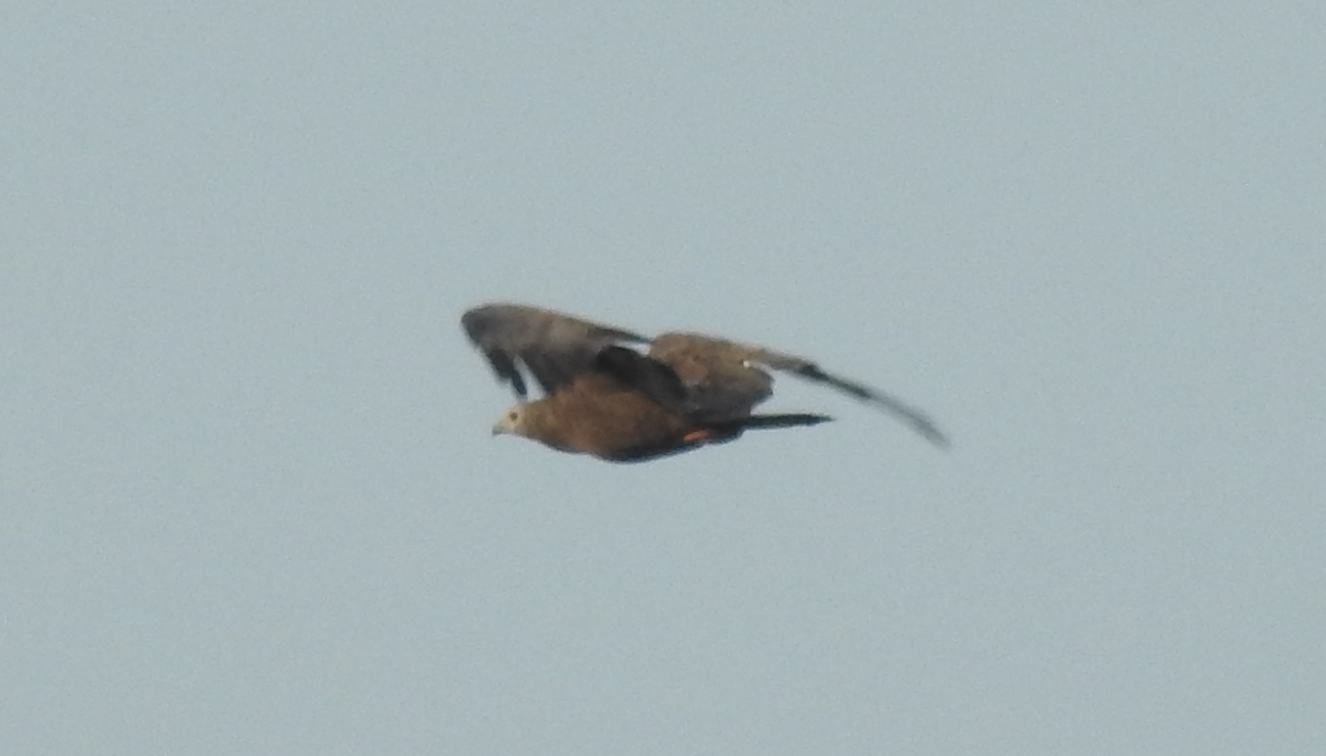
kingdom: Animalia
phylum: Chordata
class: Aves
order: Accipitriformes
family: Accipitridae
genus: Pernis
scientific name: Pernis ptilorhynchus
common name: Crested honey buzzard
